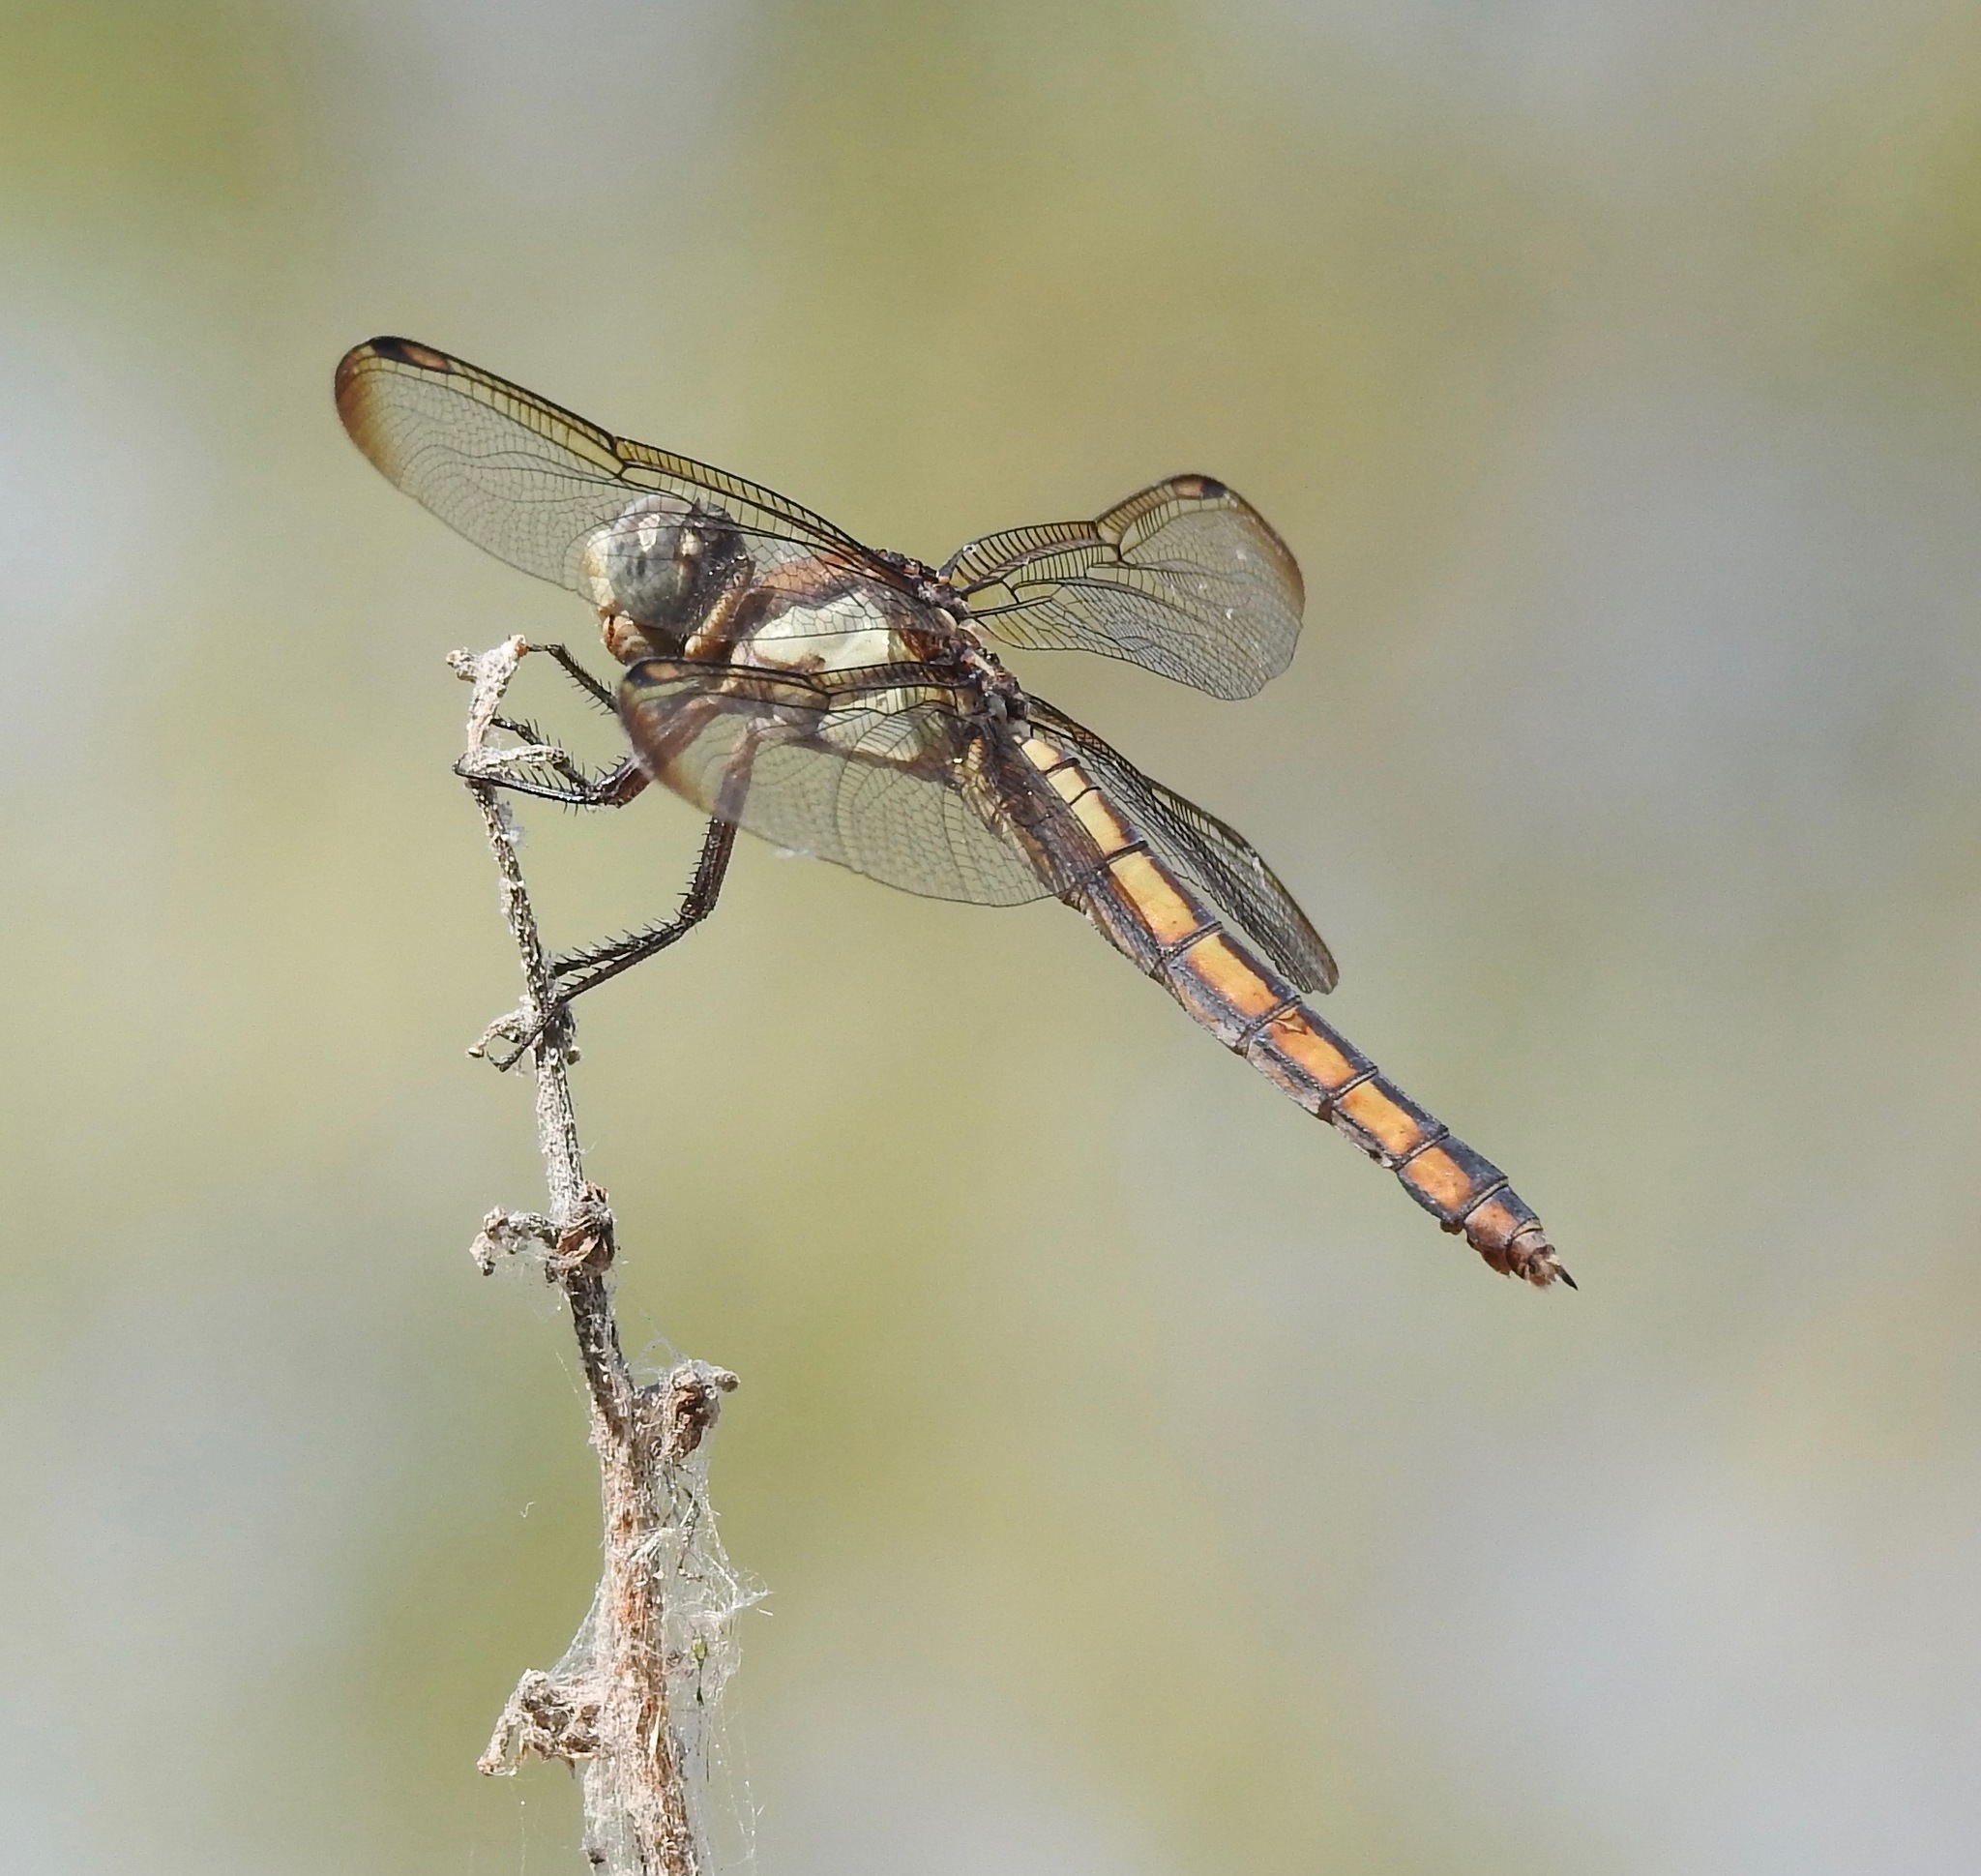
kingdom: Animalia
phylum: Arthropoda
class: Insecta
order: Odonata
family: Libellulidae
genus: Libellula
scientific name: Libellula comanche
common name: Comanche skimmer
